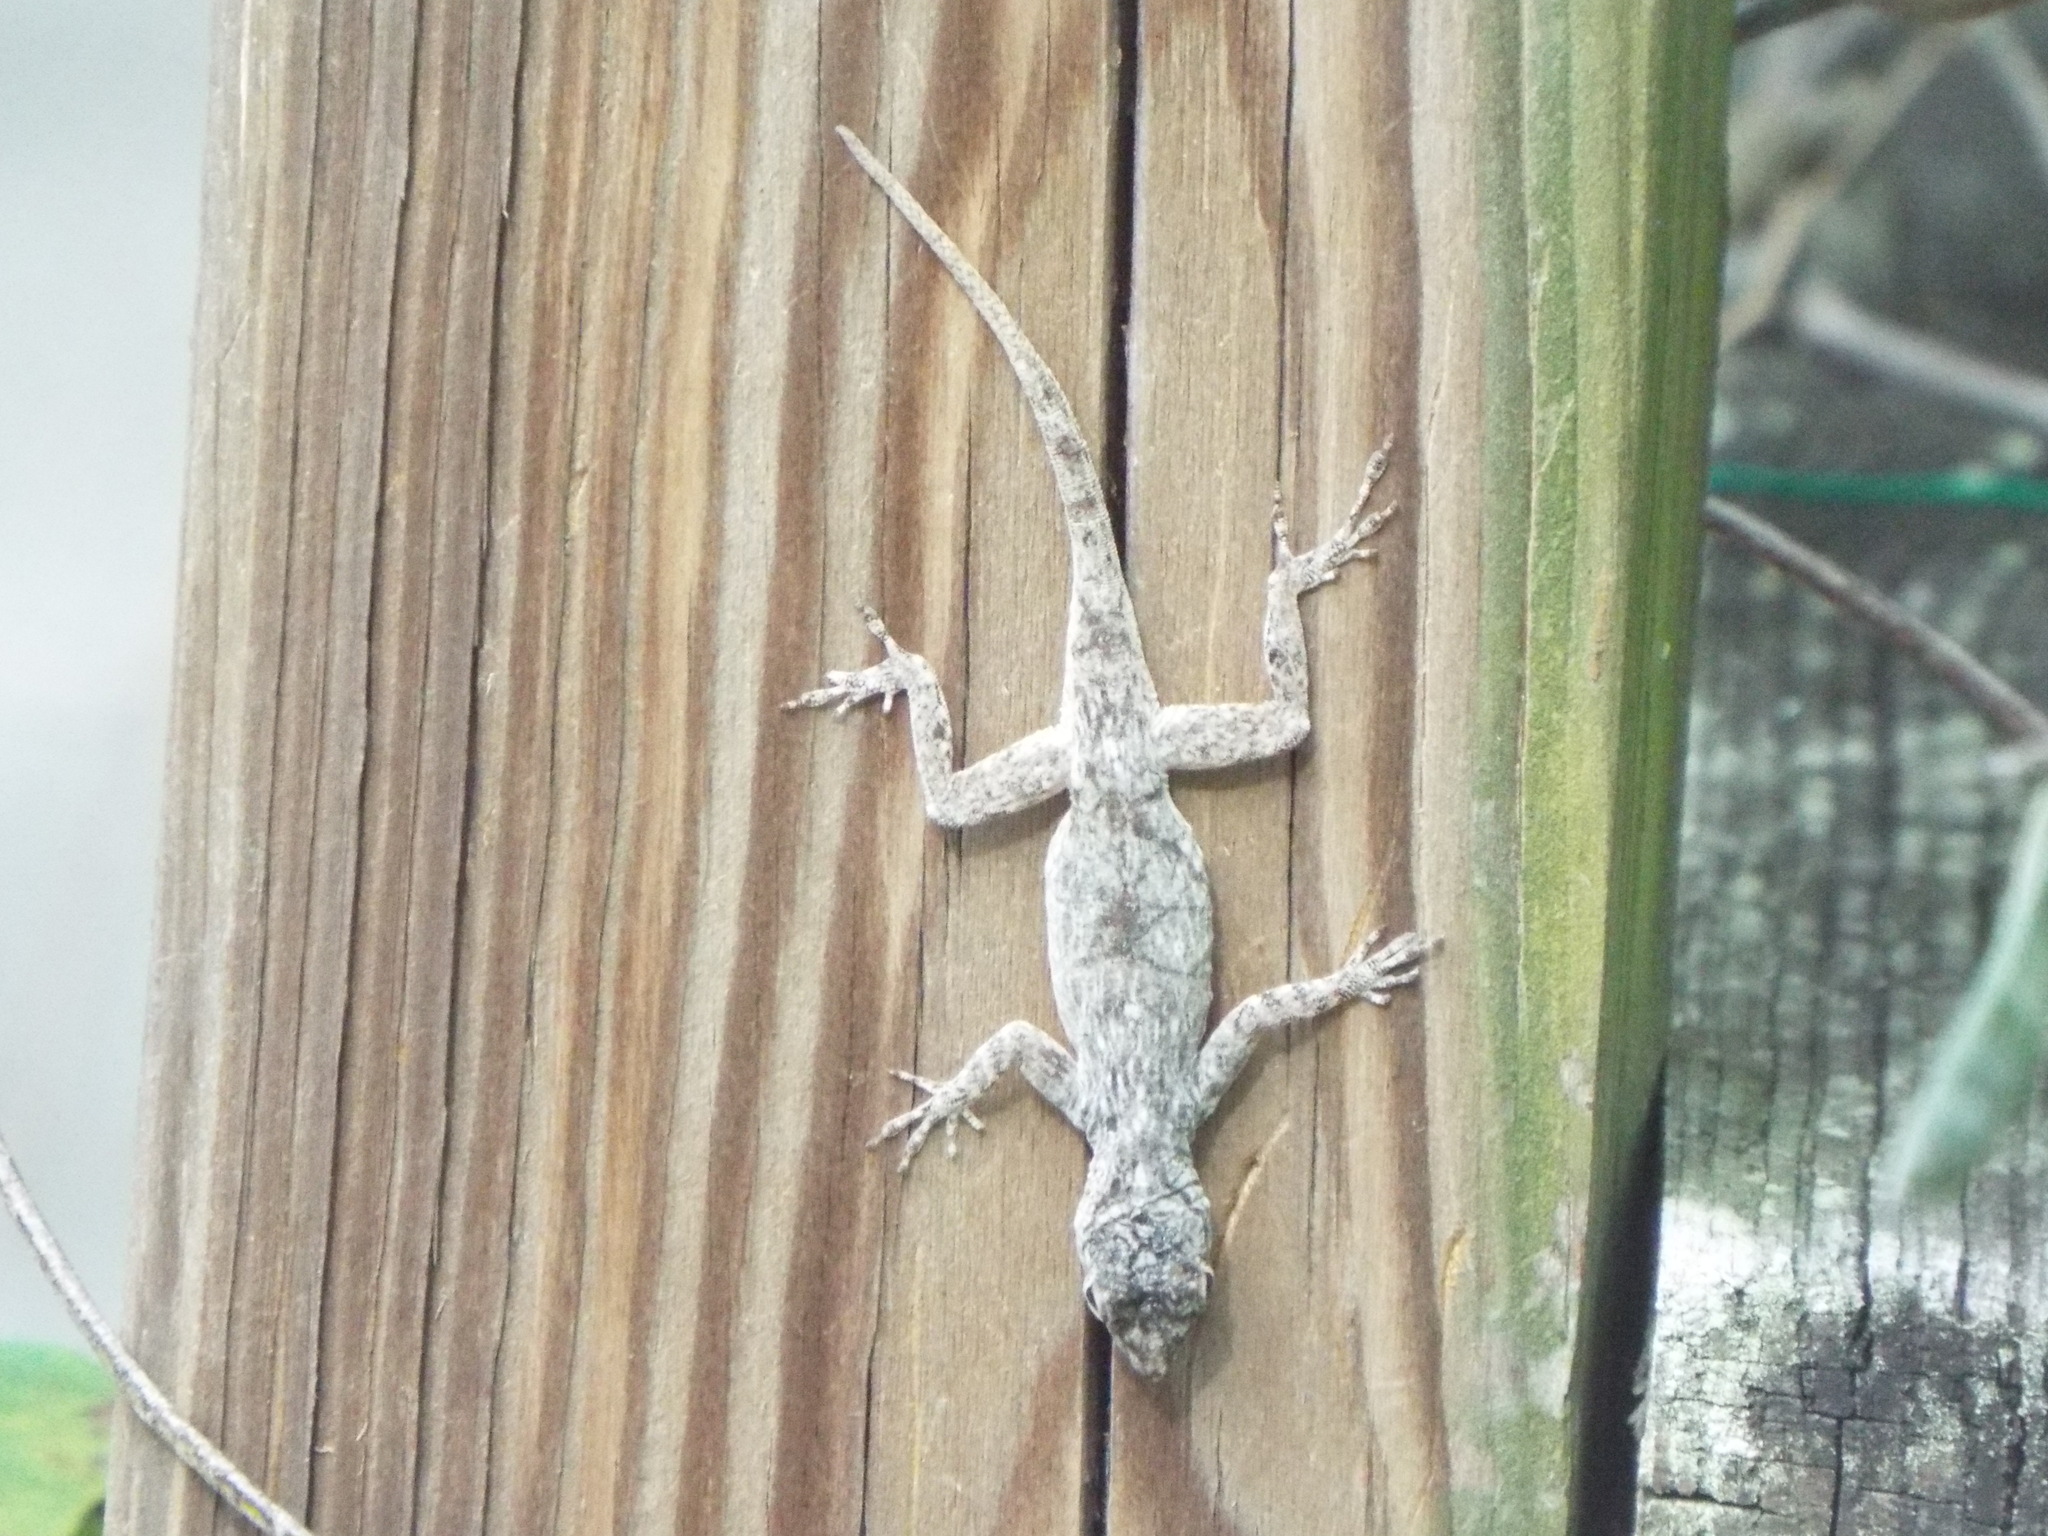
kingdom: Animalia
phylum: Chordata
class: Squamata
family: Dactyloidae
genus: Anolis
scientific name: Anolis distichus
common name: Bark anole
